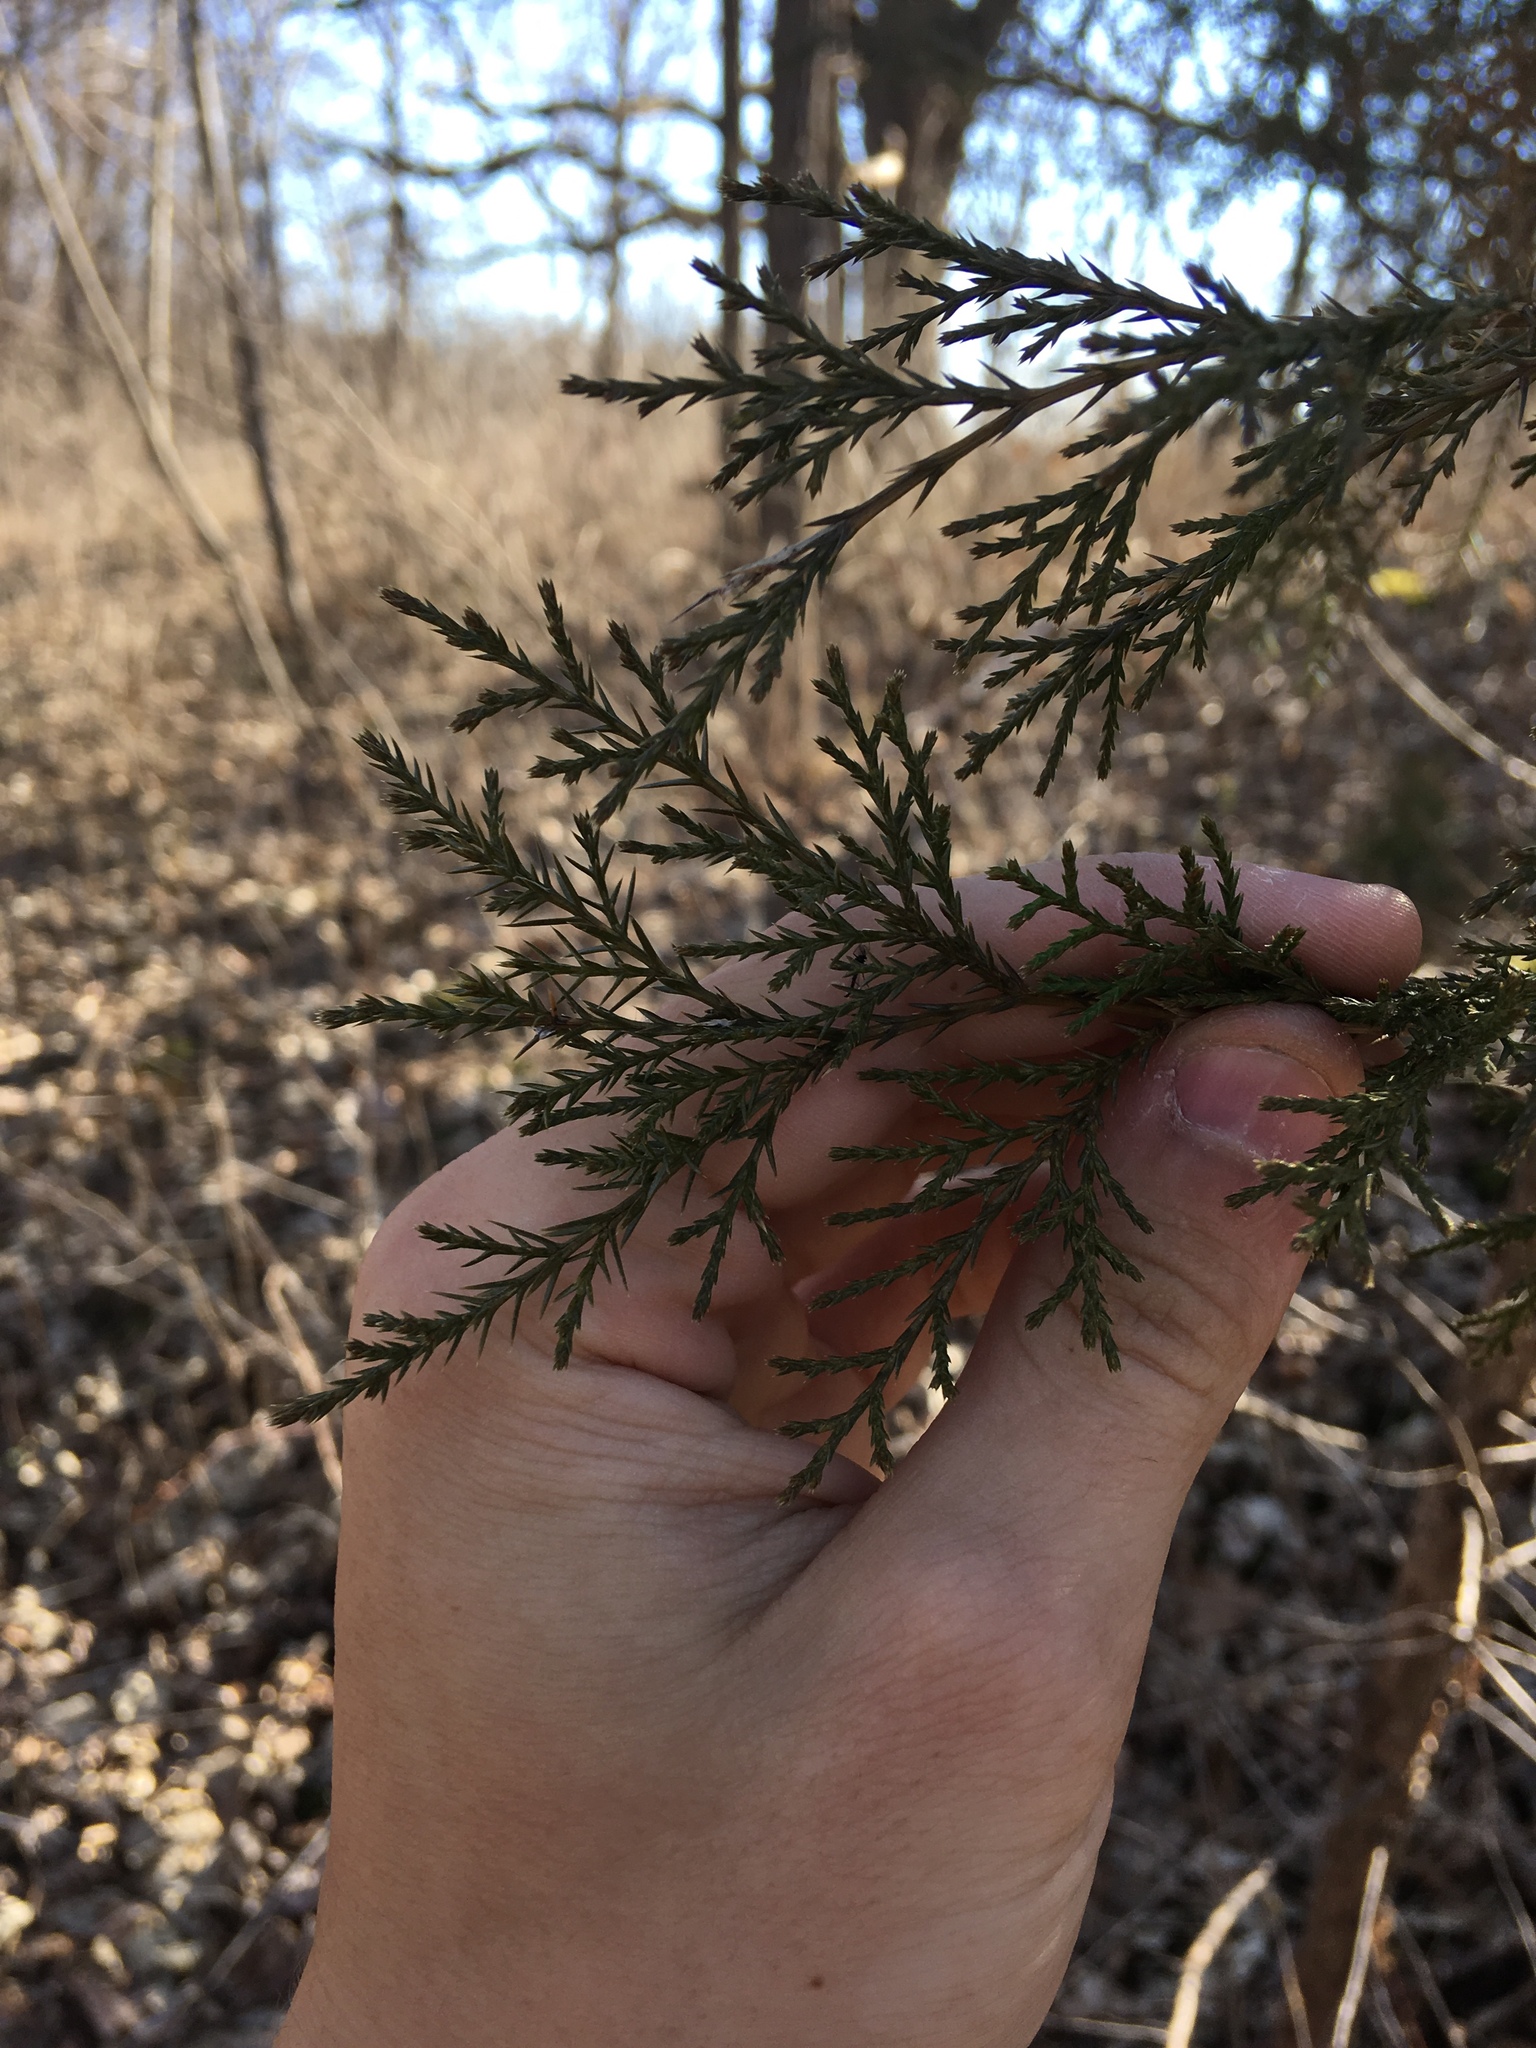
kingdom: Plantae
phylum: Tracheophyta
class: Pinopsida
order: Pinales
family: Cupressaceae
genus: Juniperus
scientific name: Juniperus virginiana
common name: Red juniper
